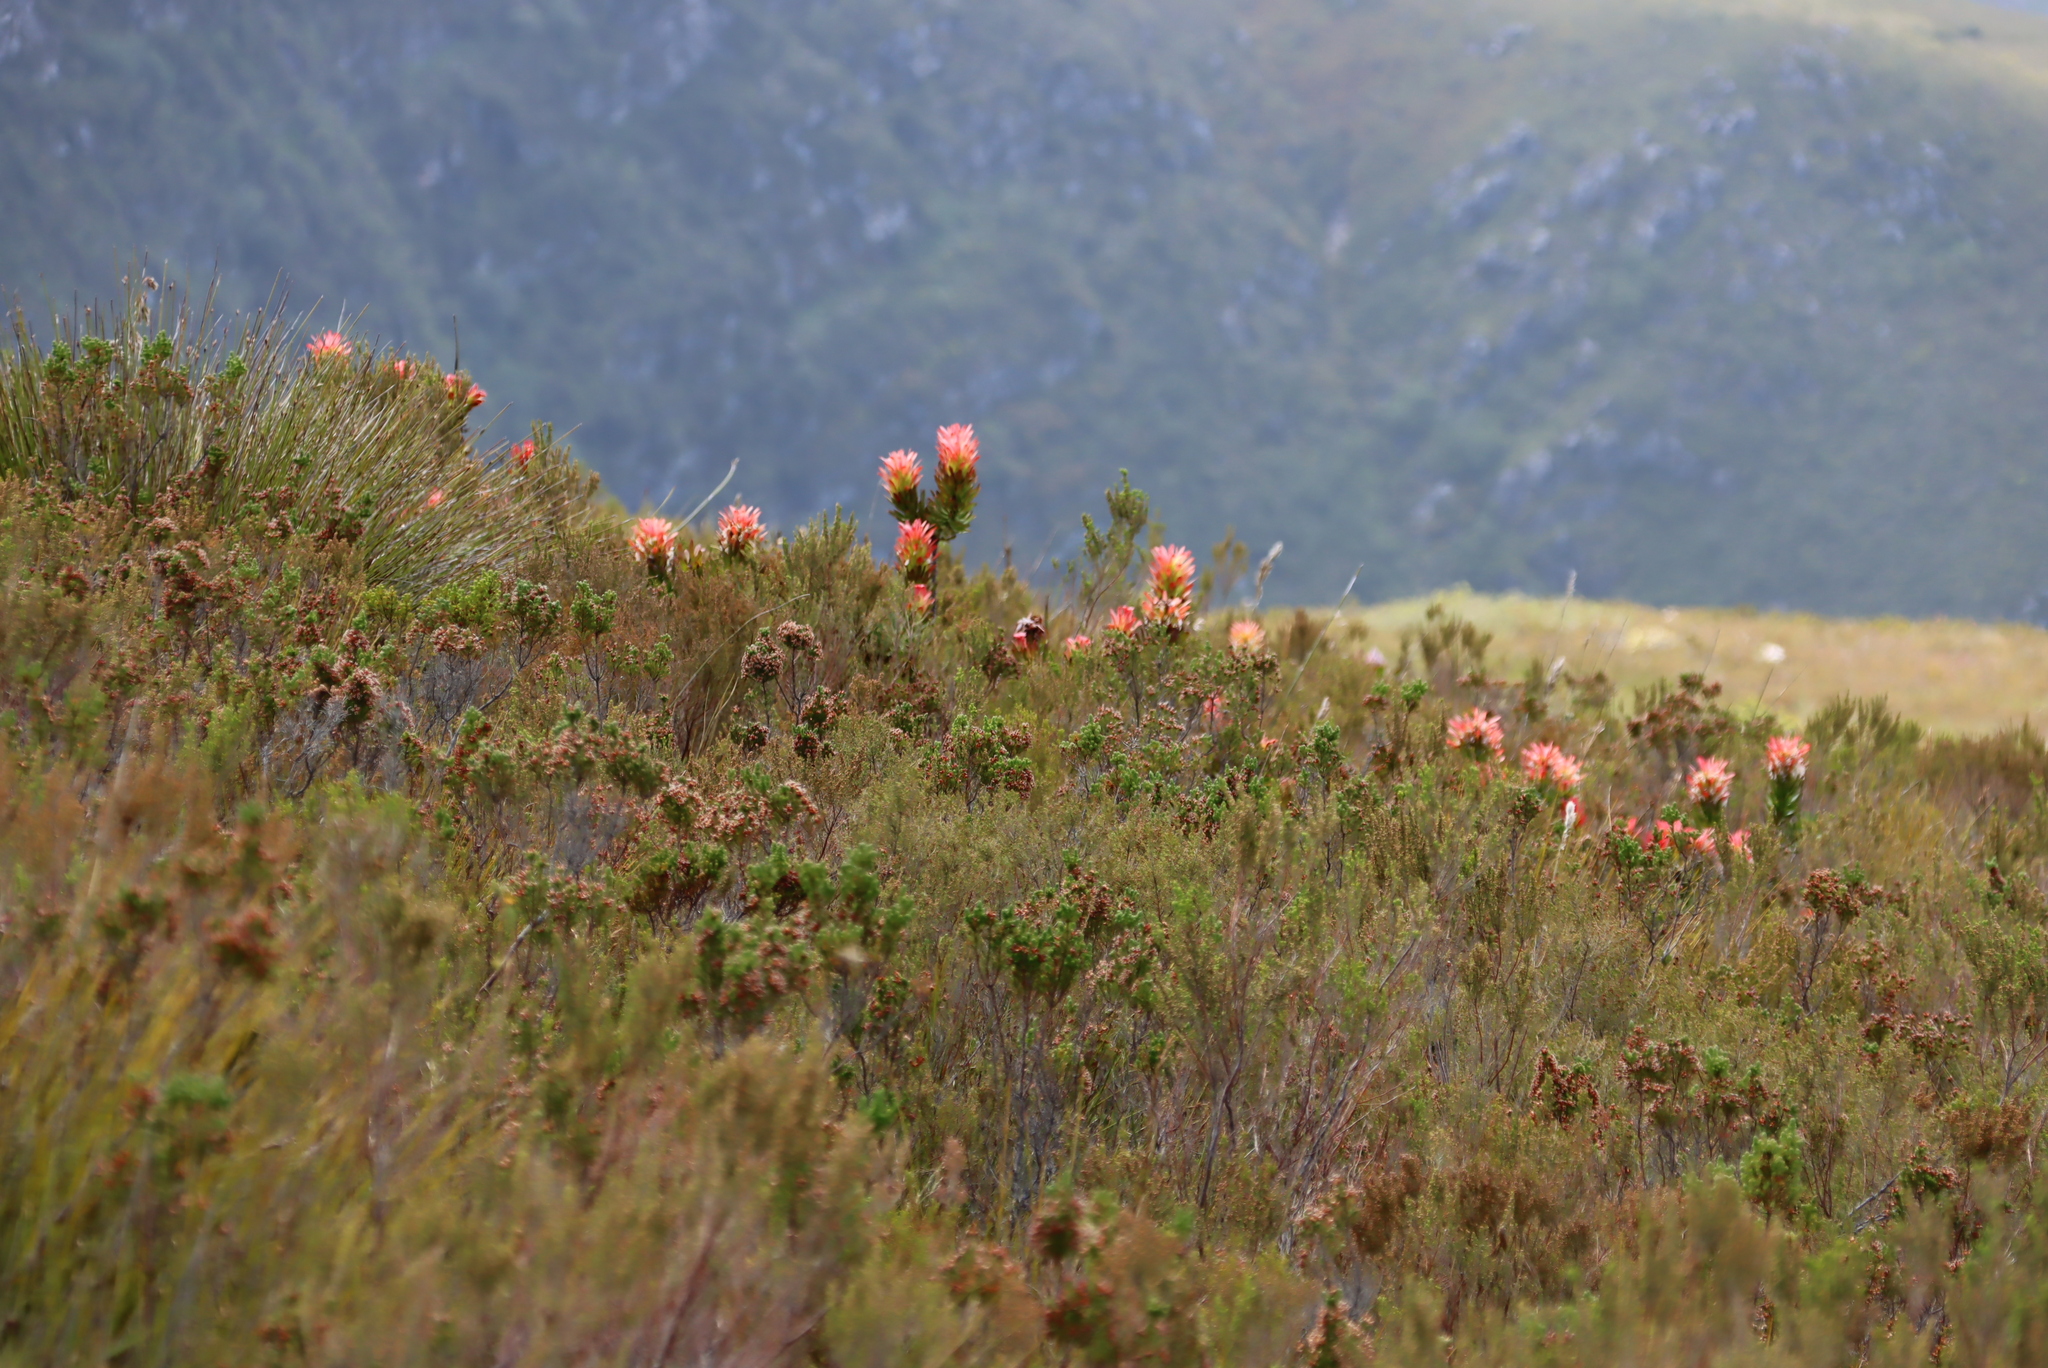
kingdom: Plantae
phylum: Tracheophyta
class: Magnoliopsida
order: Proteales
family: Proteaceae
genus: Mimetes
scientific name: Mimetes cucullatus
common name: Common pagoda
